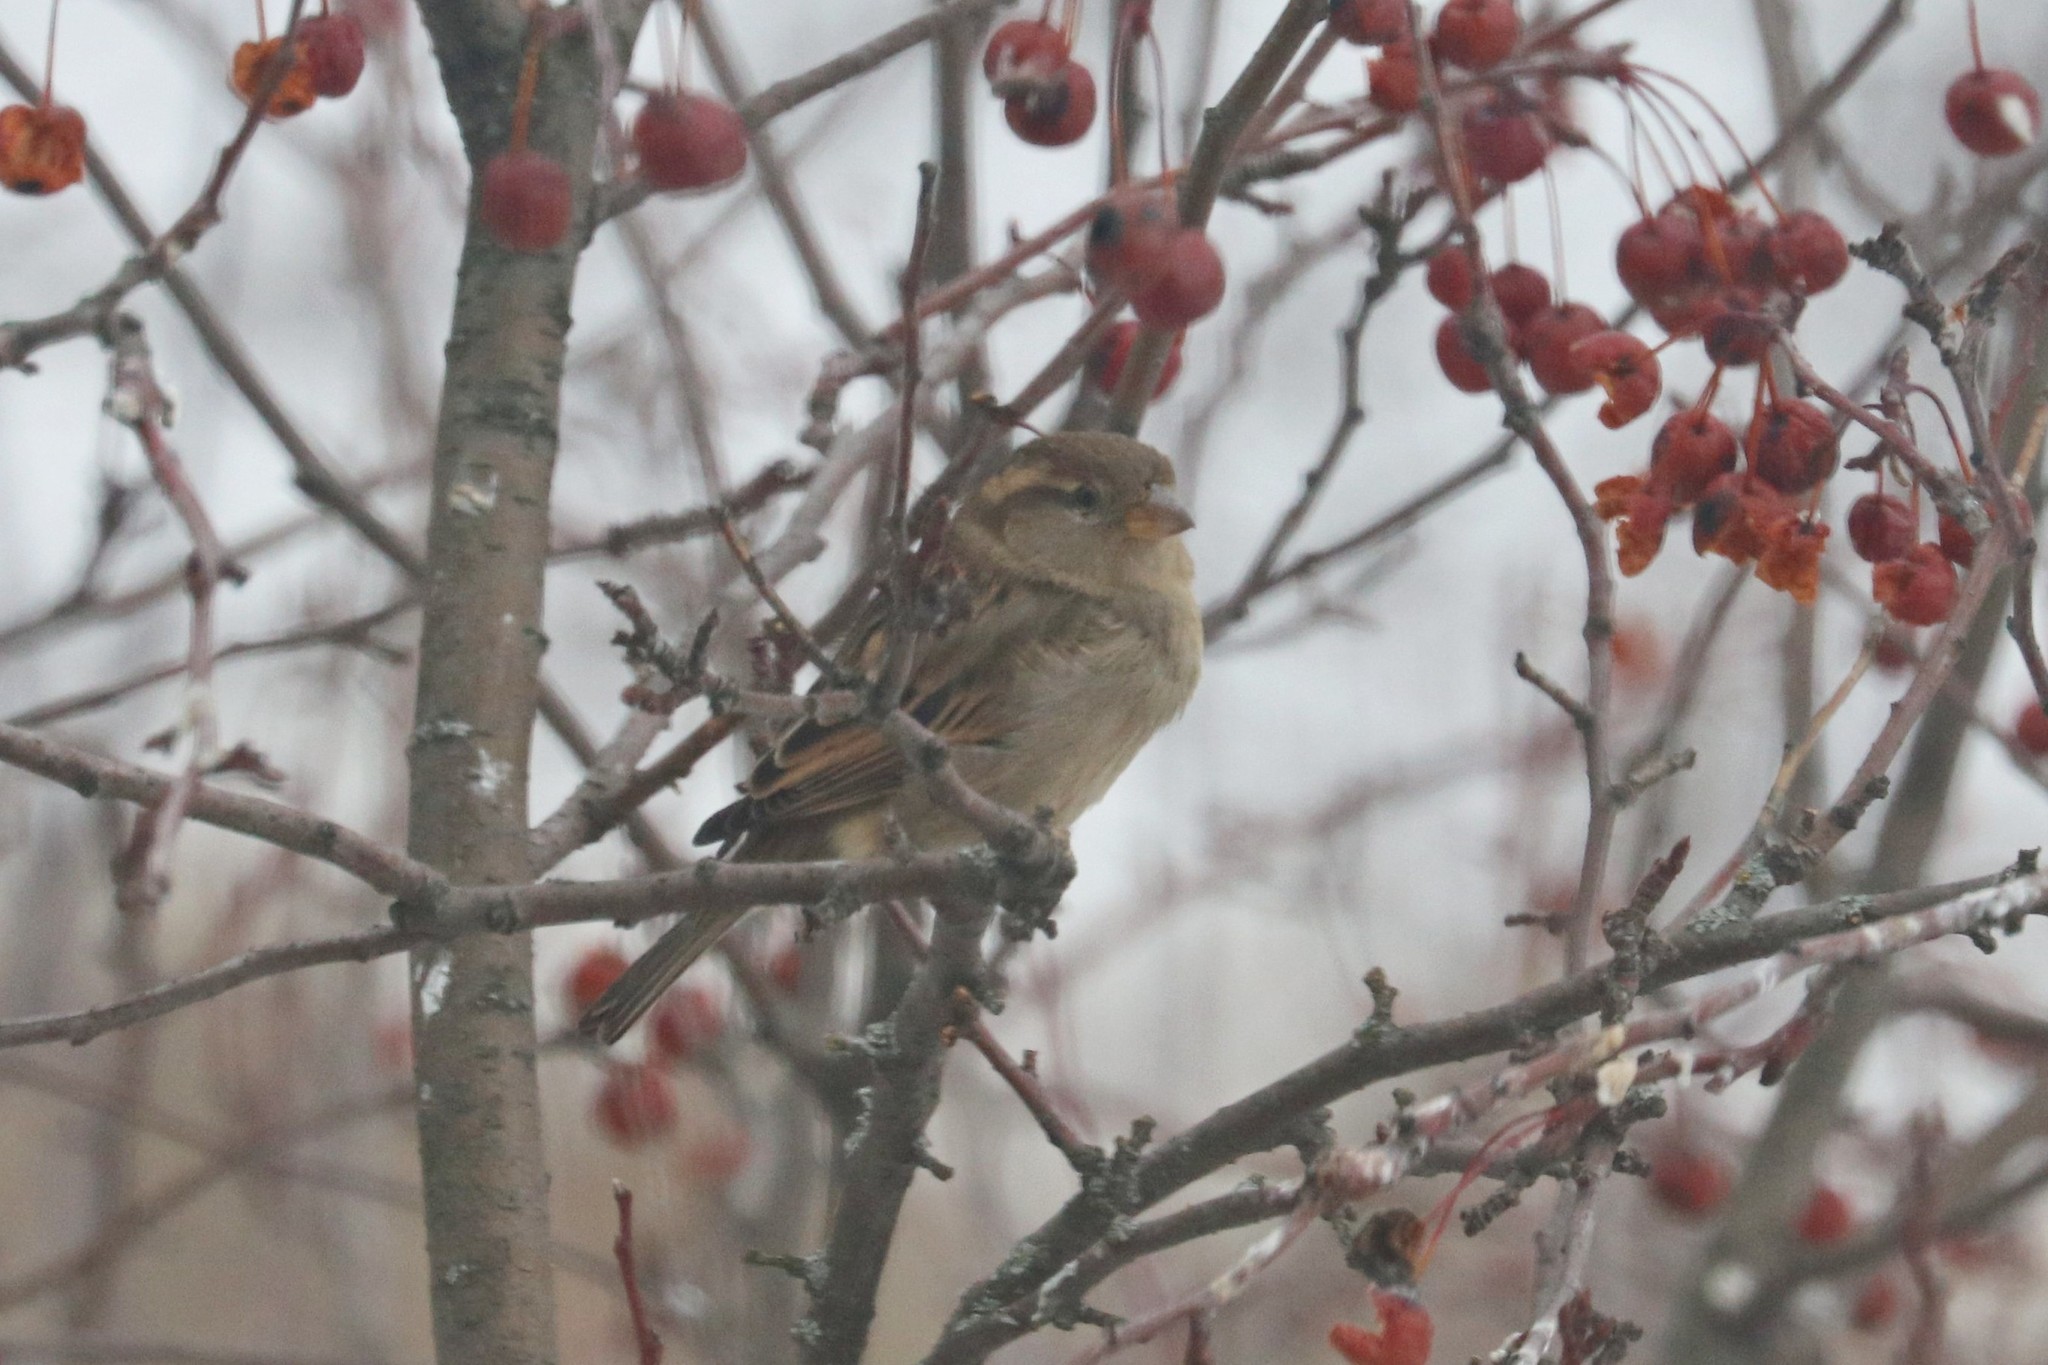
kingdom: Animalia
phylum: Chordata
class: Aves
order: Passeriformes
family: Passeridae
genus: Passer
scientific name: Passer domesticus
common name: House sparrow
